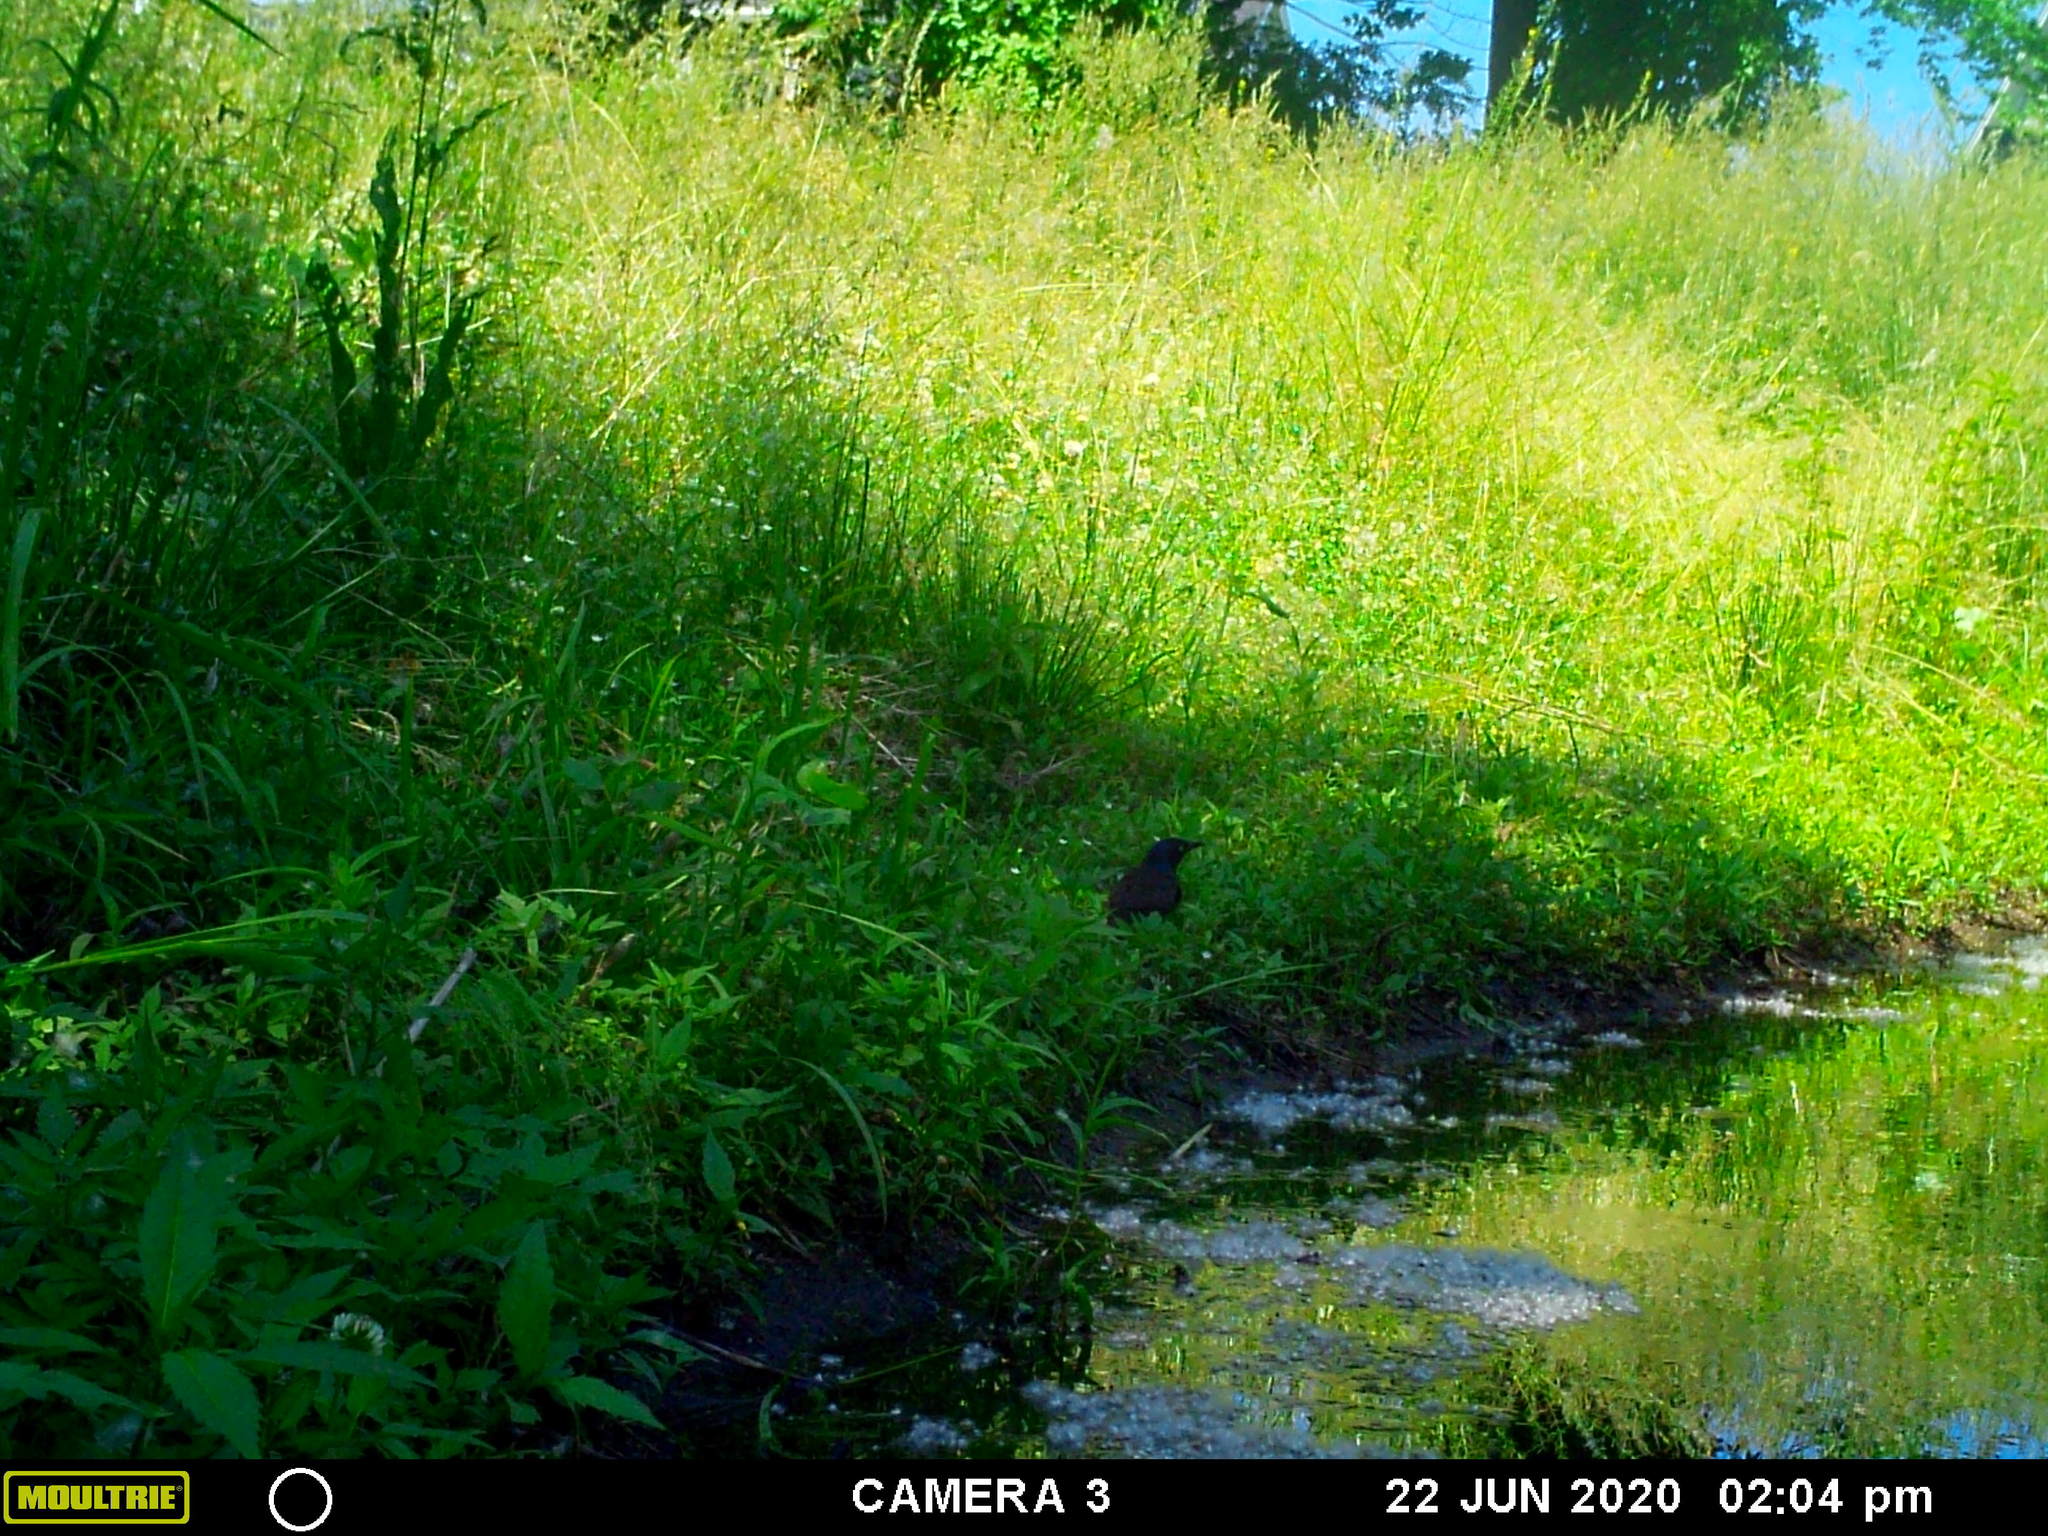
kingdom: Animalia
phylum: Chordata
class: Aves
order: Passeriformes
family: Icteridae
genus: Quiscalus
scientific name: Quiscalus quiscula
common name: Common grackle
